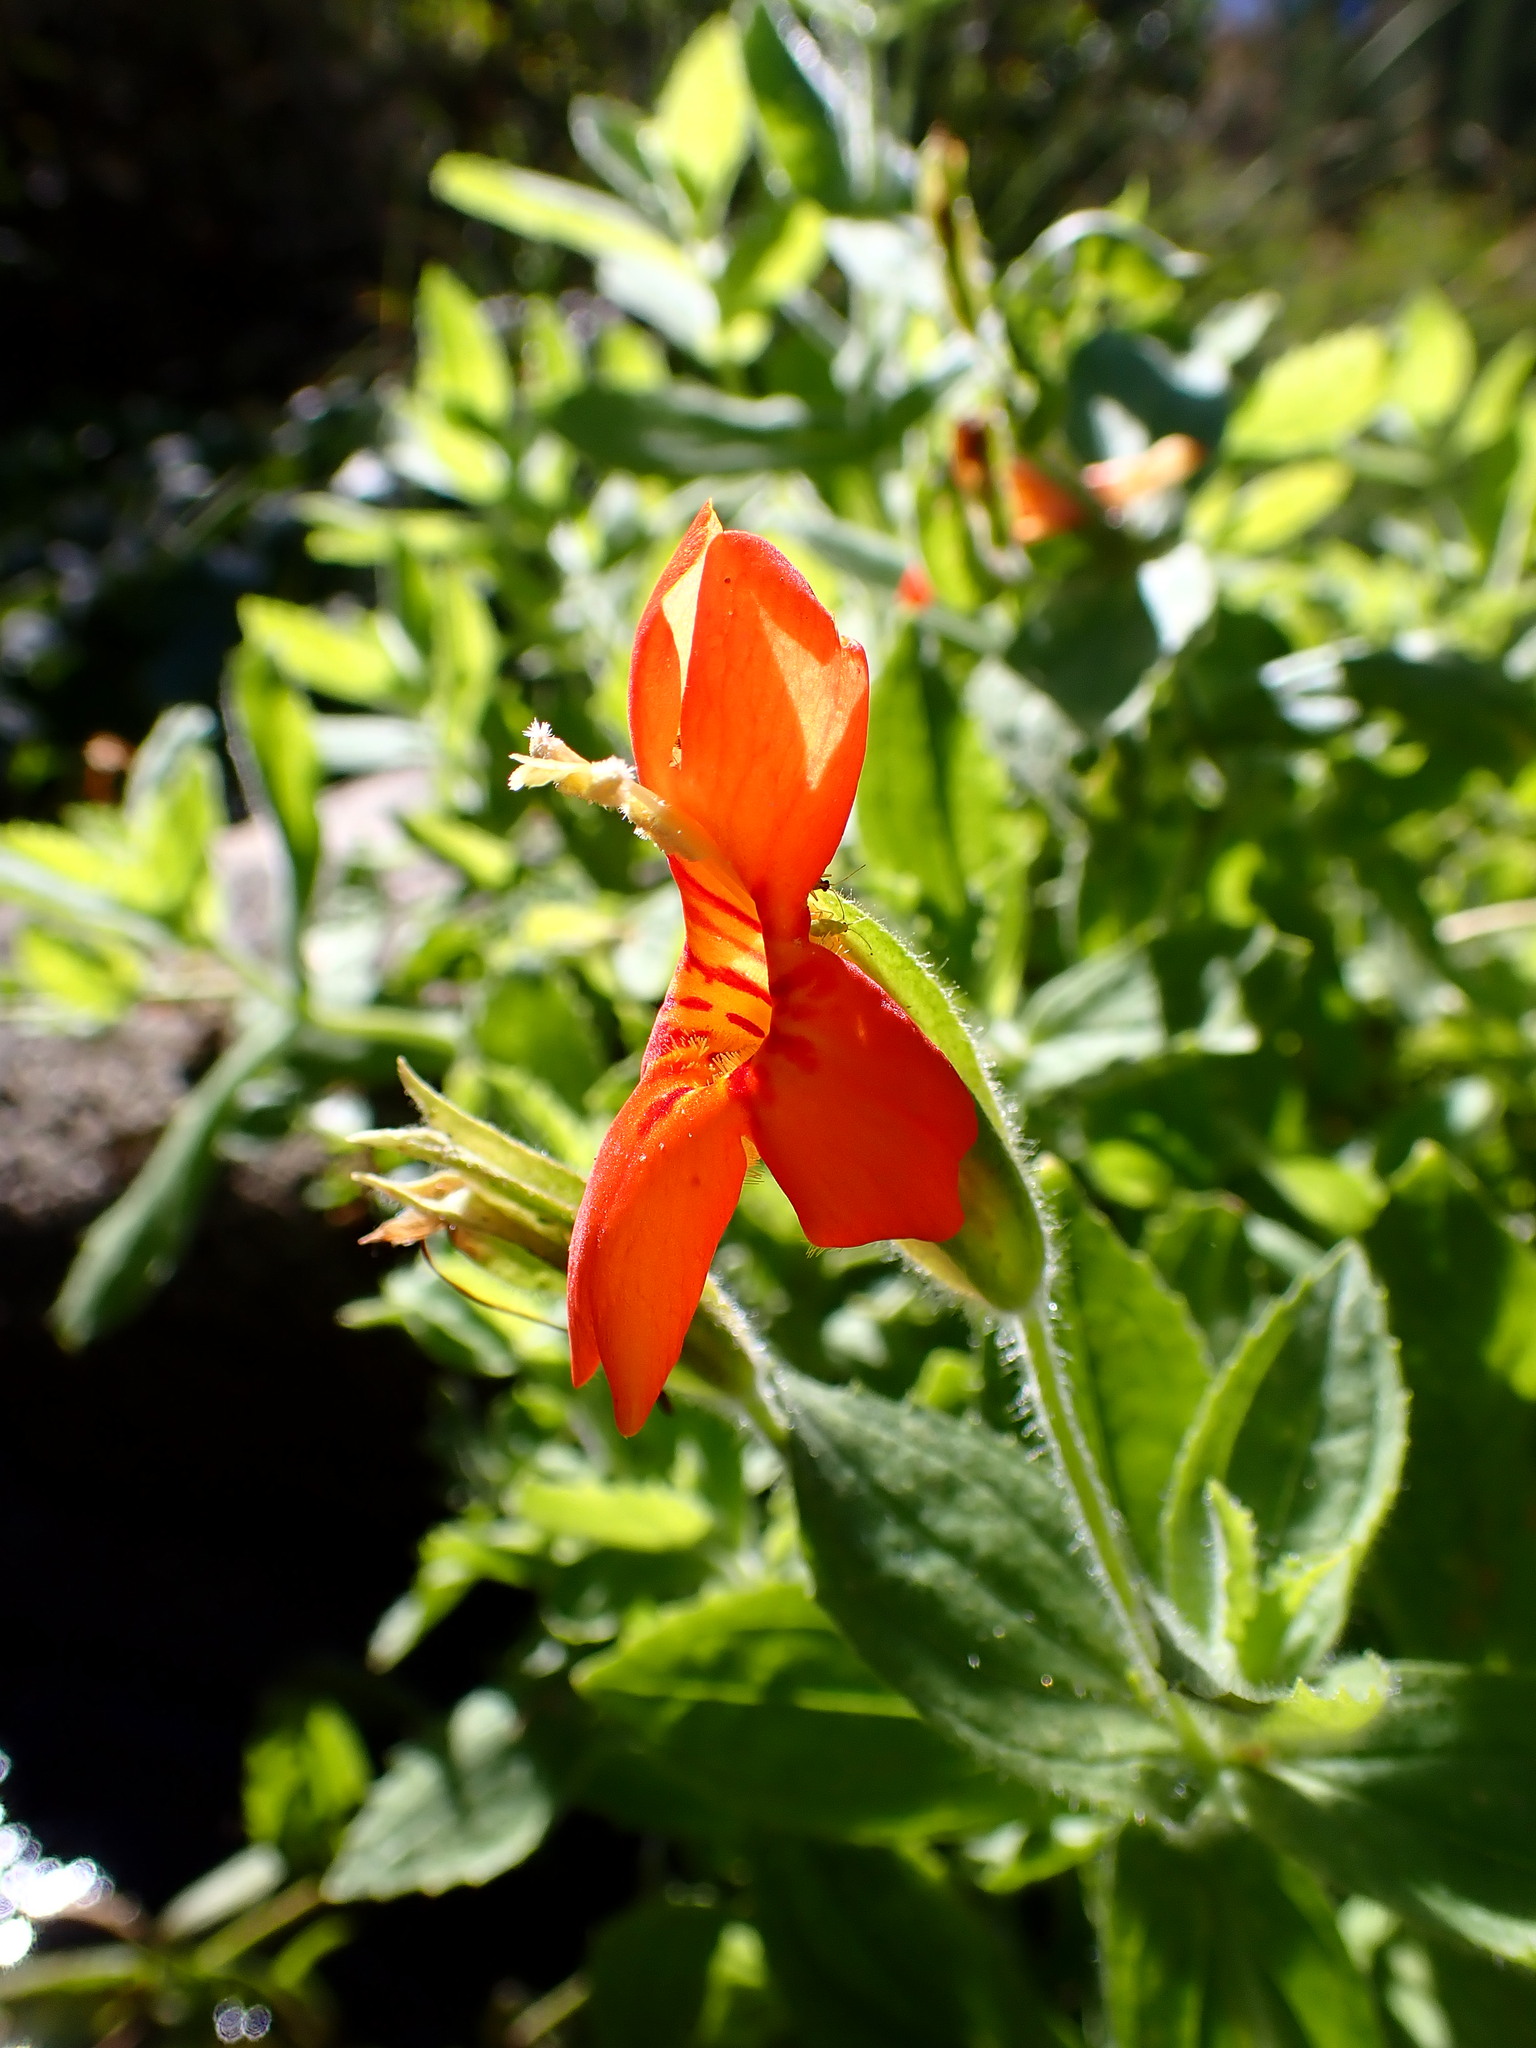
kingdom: Plantae
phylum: Tracheophyta
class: Magnoliopsida
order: Lamiales
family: Phrymaceae
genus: Erythranthe
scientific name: Erythranthe cardinalis
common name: Scarlet monkey-flower
